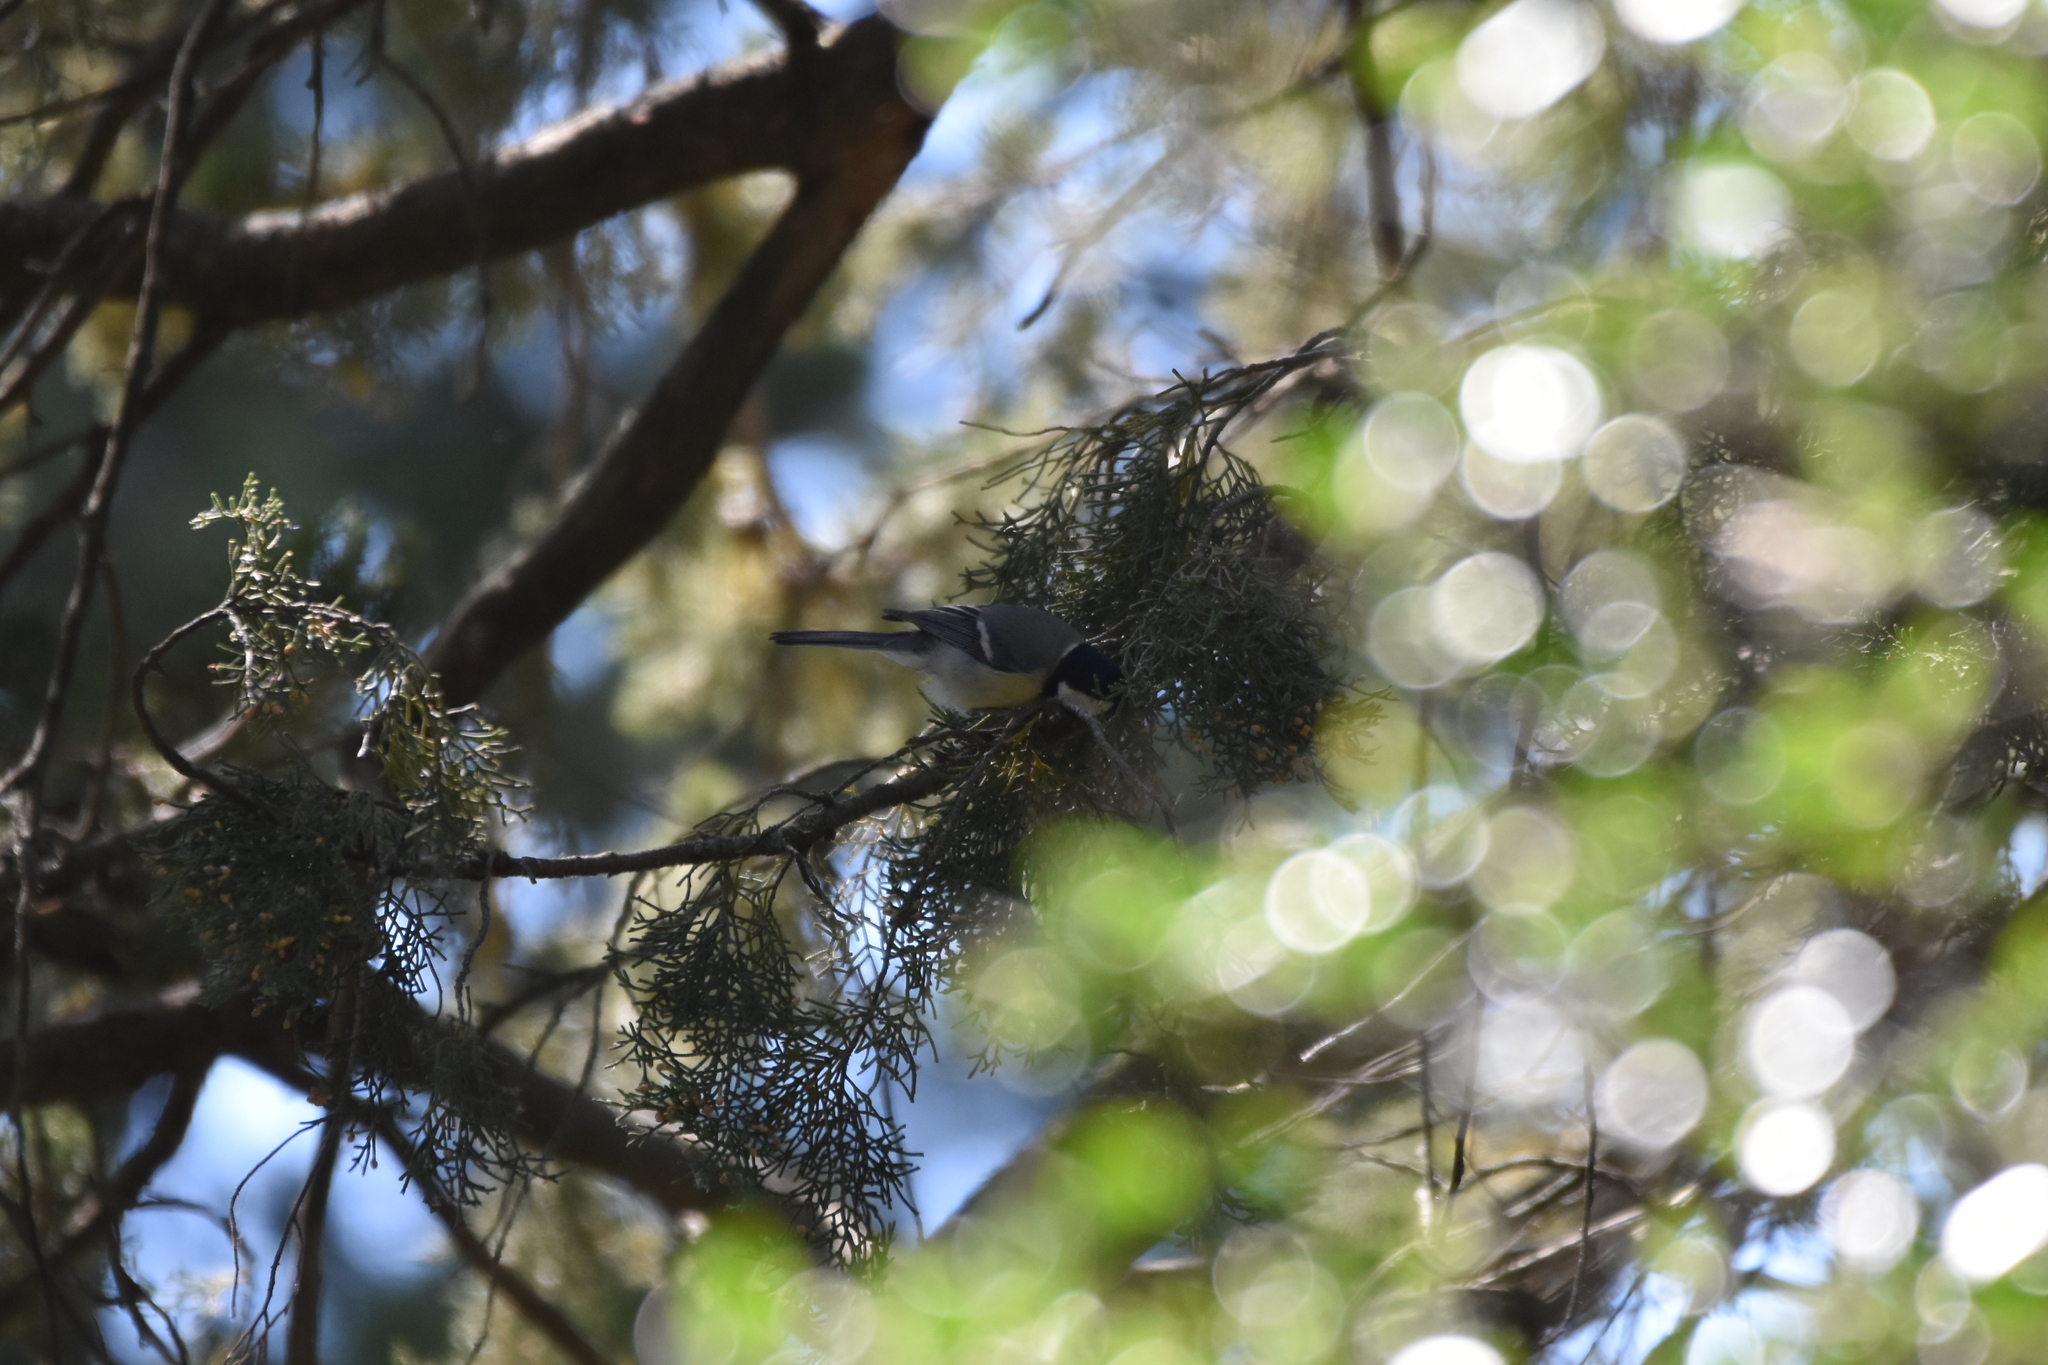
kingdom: Animalia
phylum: Chordata
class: Aves
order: Passeriformes
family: Paridae
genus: Parus
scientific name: Parus major
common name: Great tit
